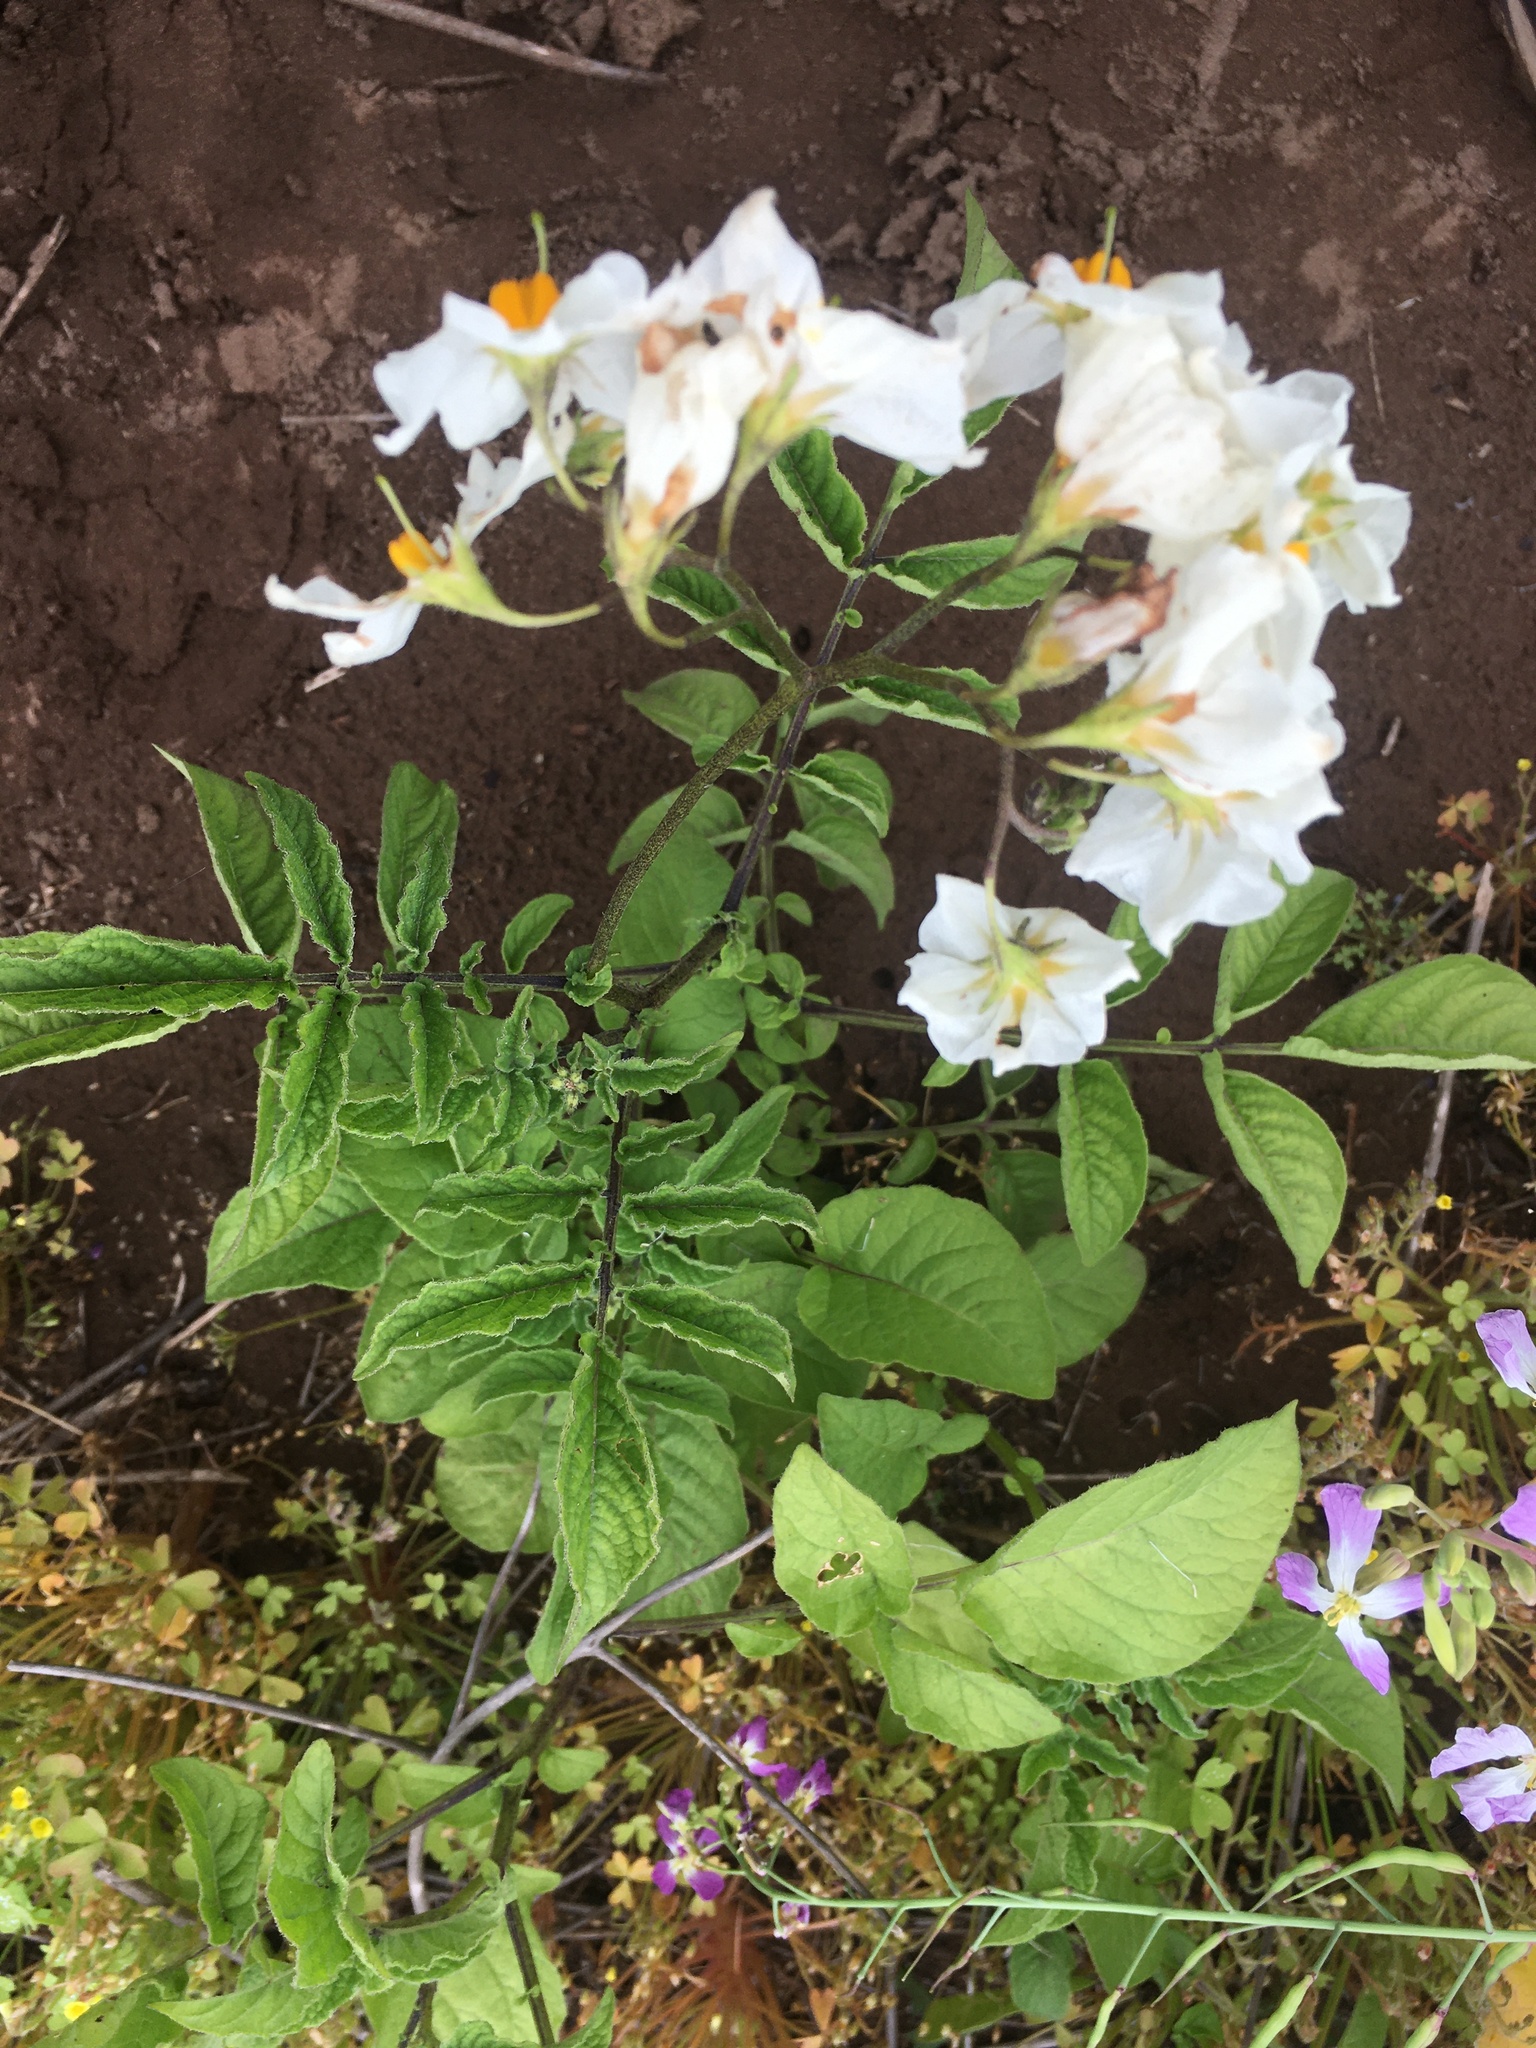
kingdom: Plantae
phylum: Tracheophyta
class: Magnoliopsida
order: Solanales
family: Solanaceae
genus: Solanum
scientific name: Solanum maglia
